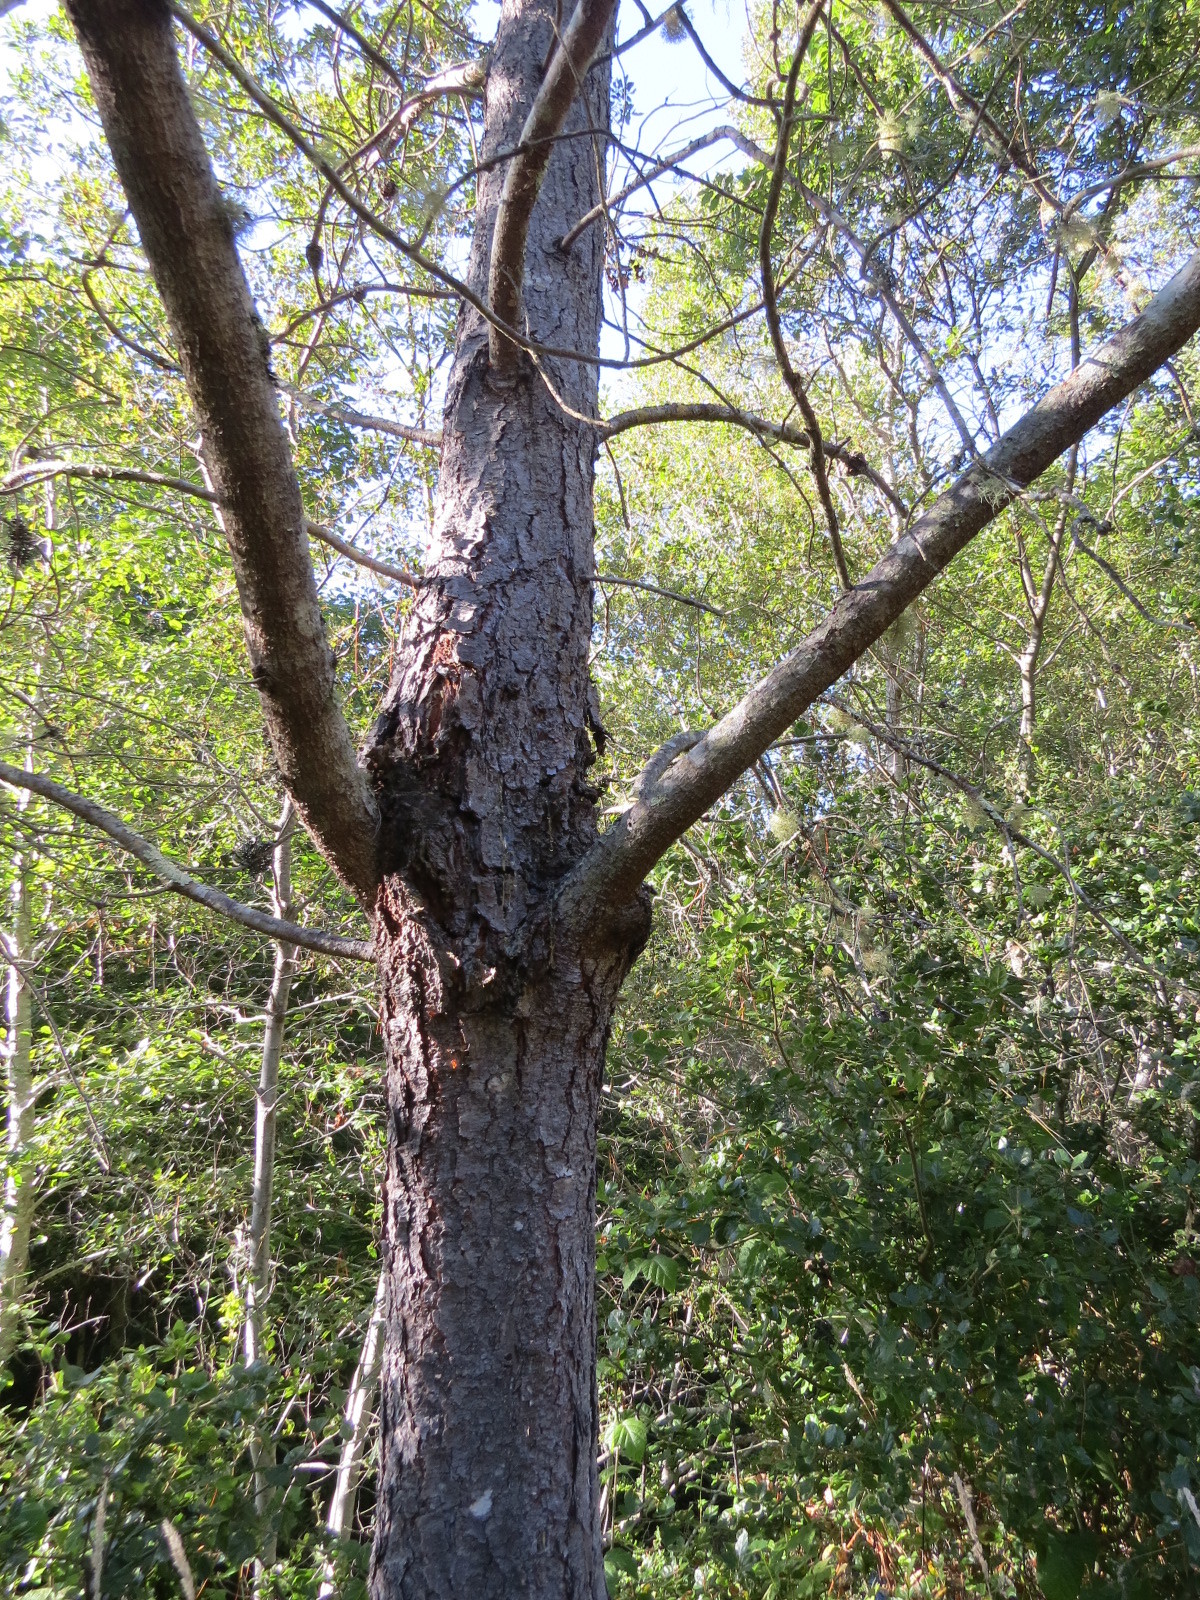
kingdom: Fungi
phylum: Basidiomycota
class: Pucciniomycetes
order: Pucciniales
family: Cronartiaceae
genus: Cronartium
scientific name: Cronartium harknessii
